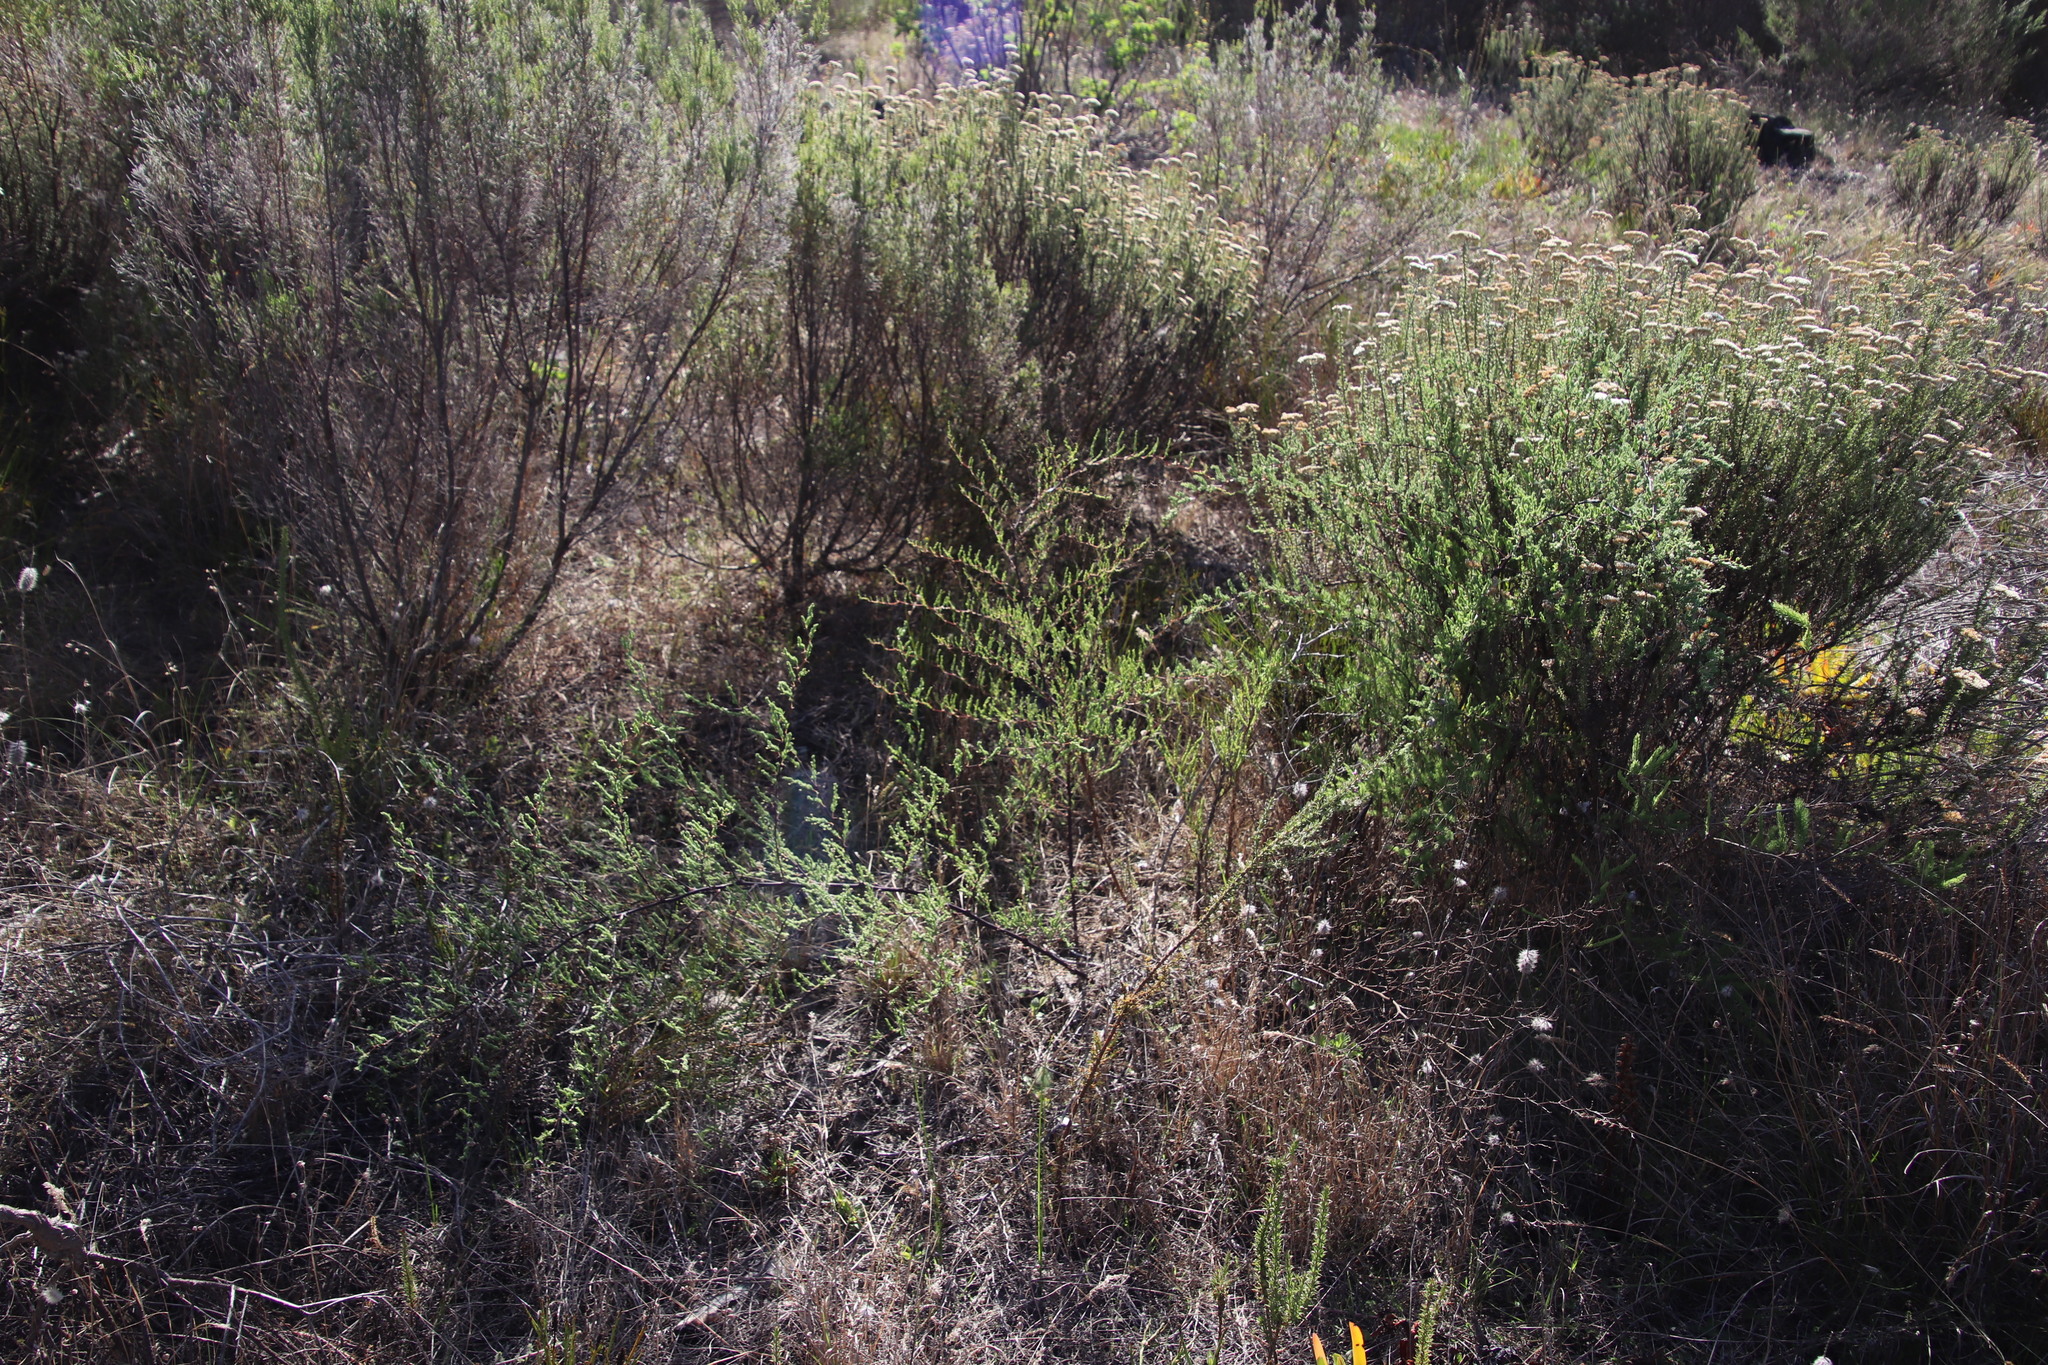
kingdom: Plantae
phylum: Tracheophyta
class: Liliopsida
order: Asparagales
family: Asparagaceae
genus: Asparagus
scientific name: Asparagus rubicundus
